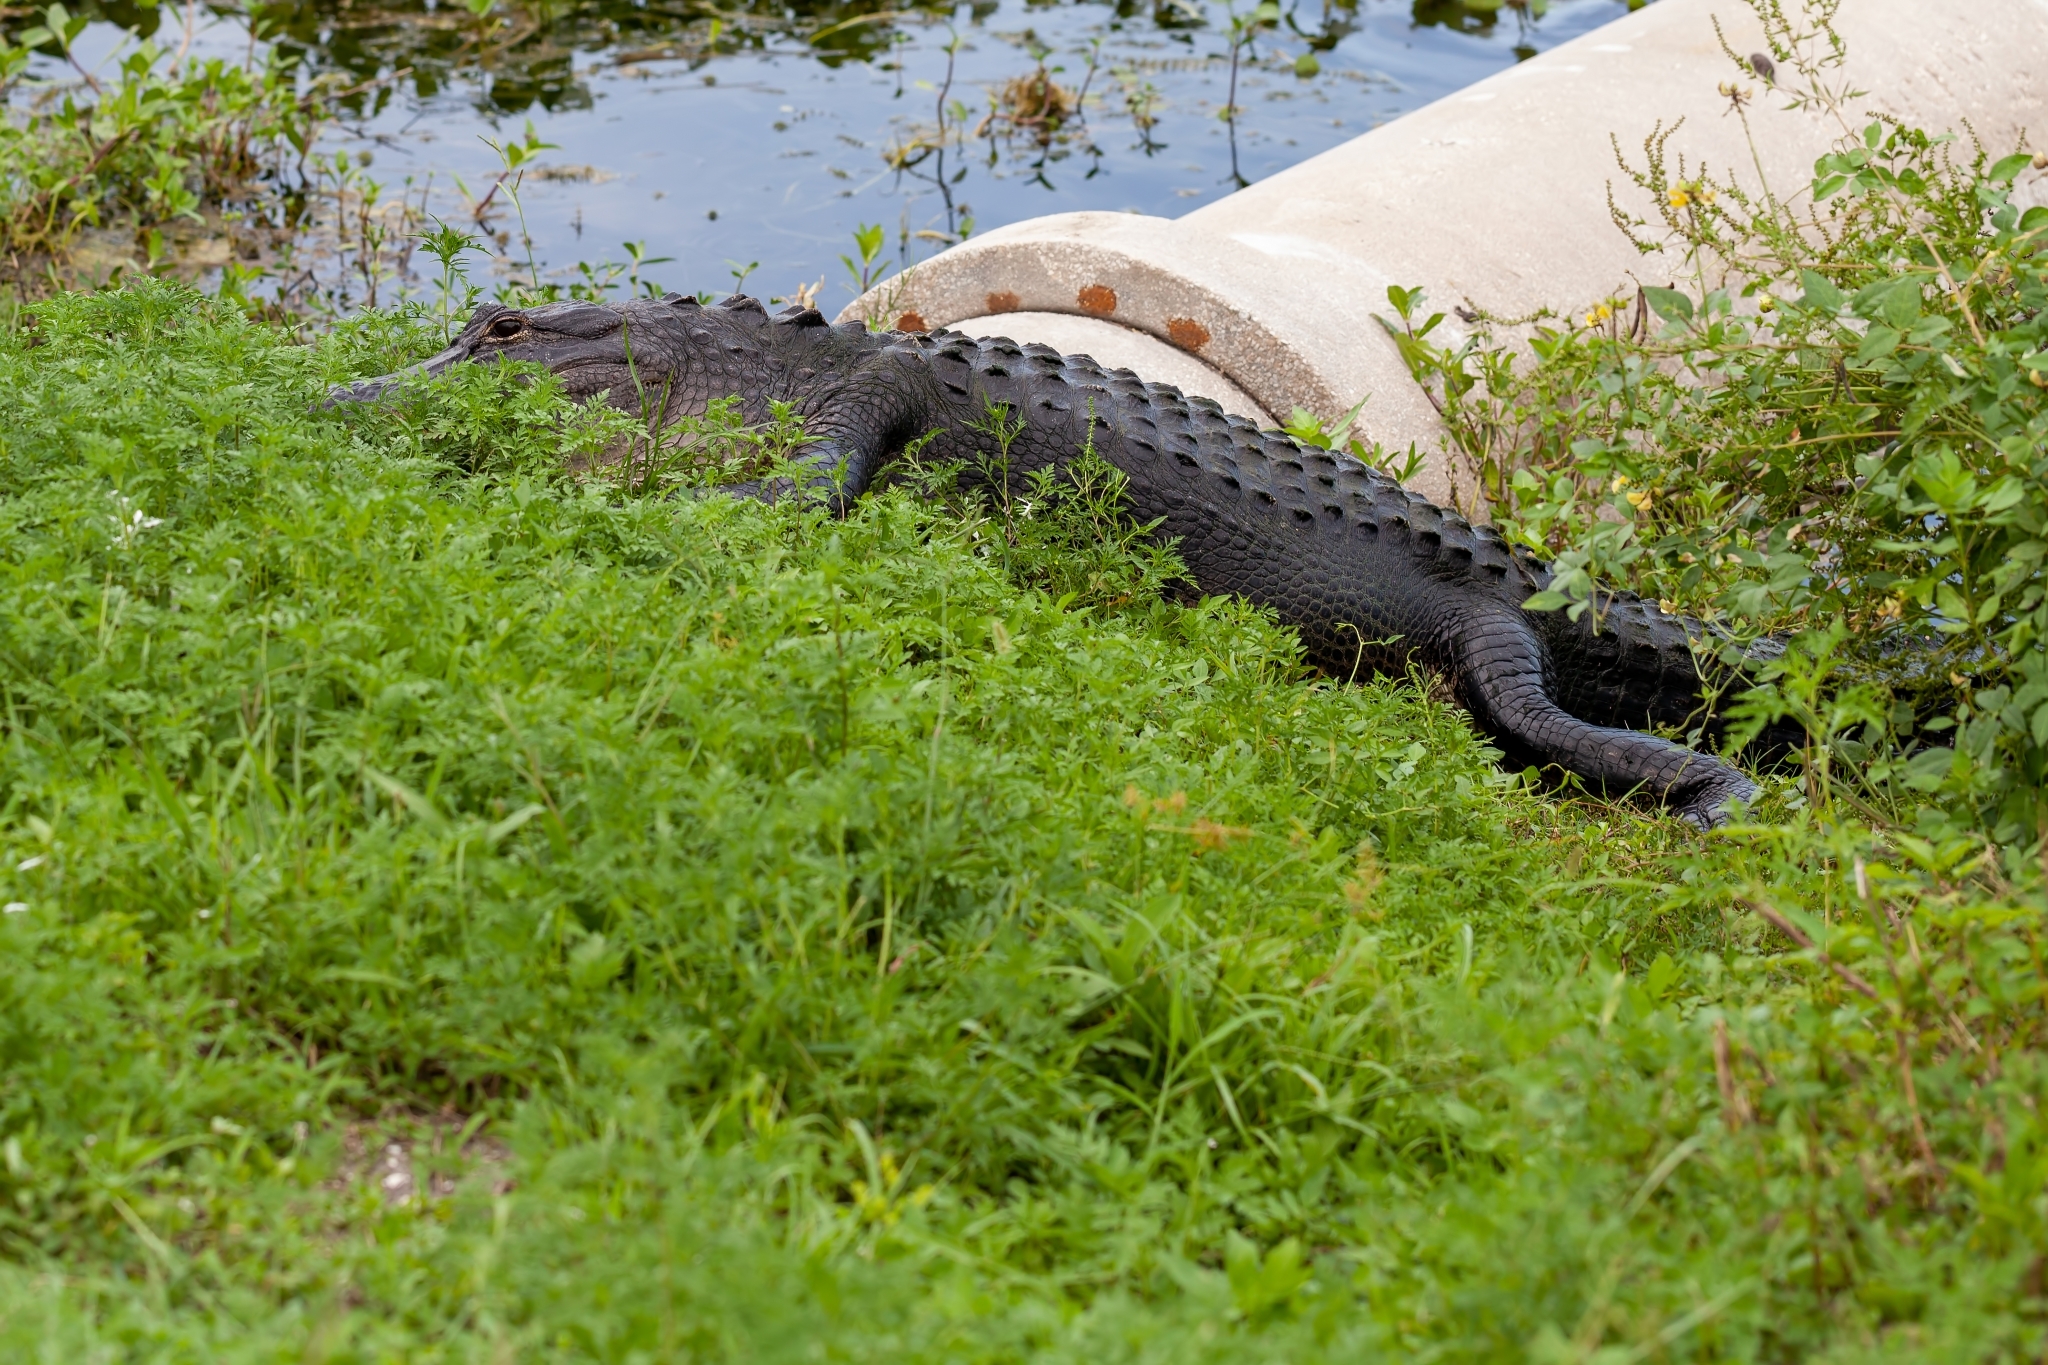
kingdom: Animalia
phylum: Chordata
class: Crocodylia
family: Alligatoridae
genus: Alligator
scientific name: Alligator mississippiensis
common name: American alligator
